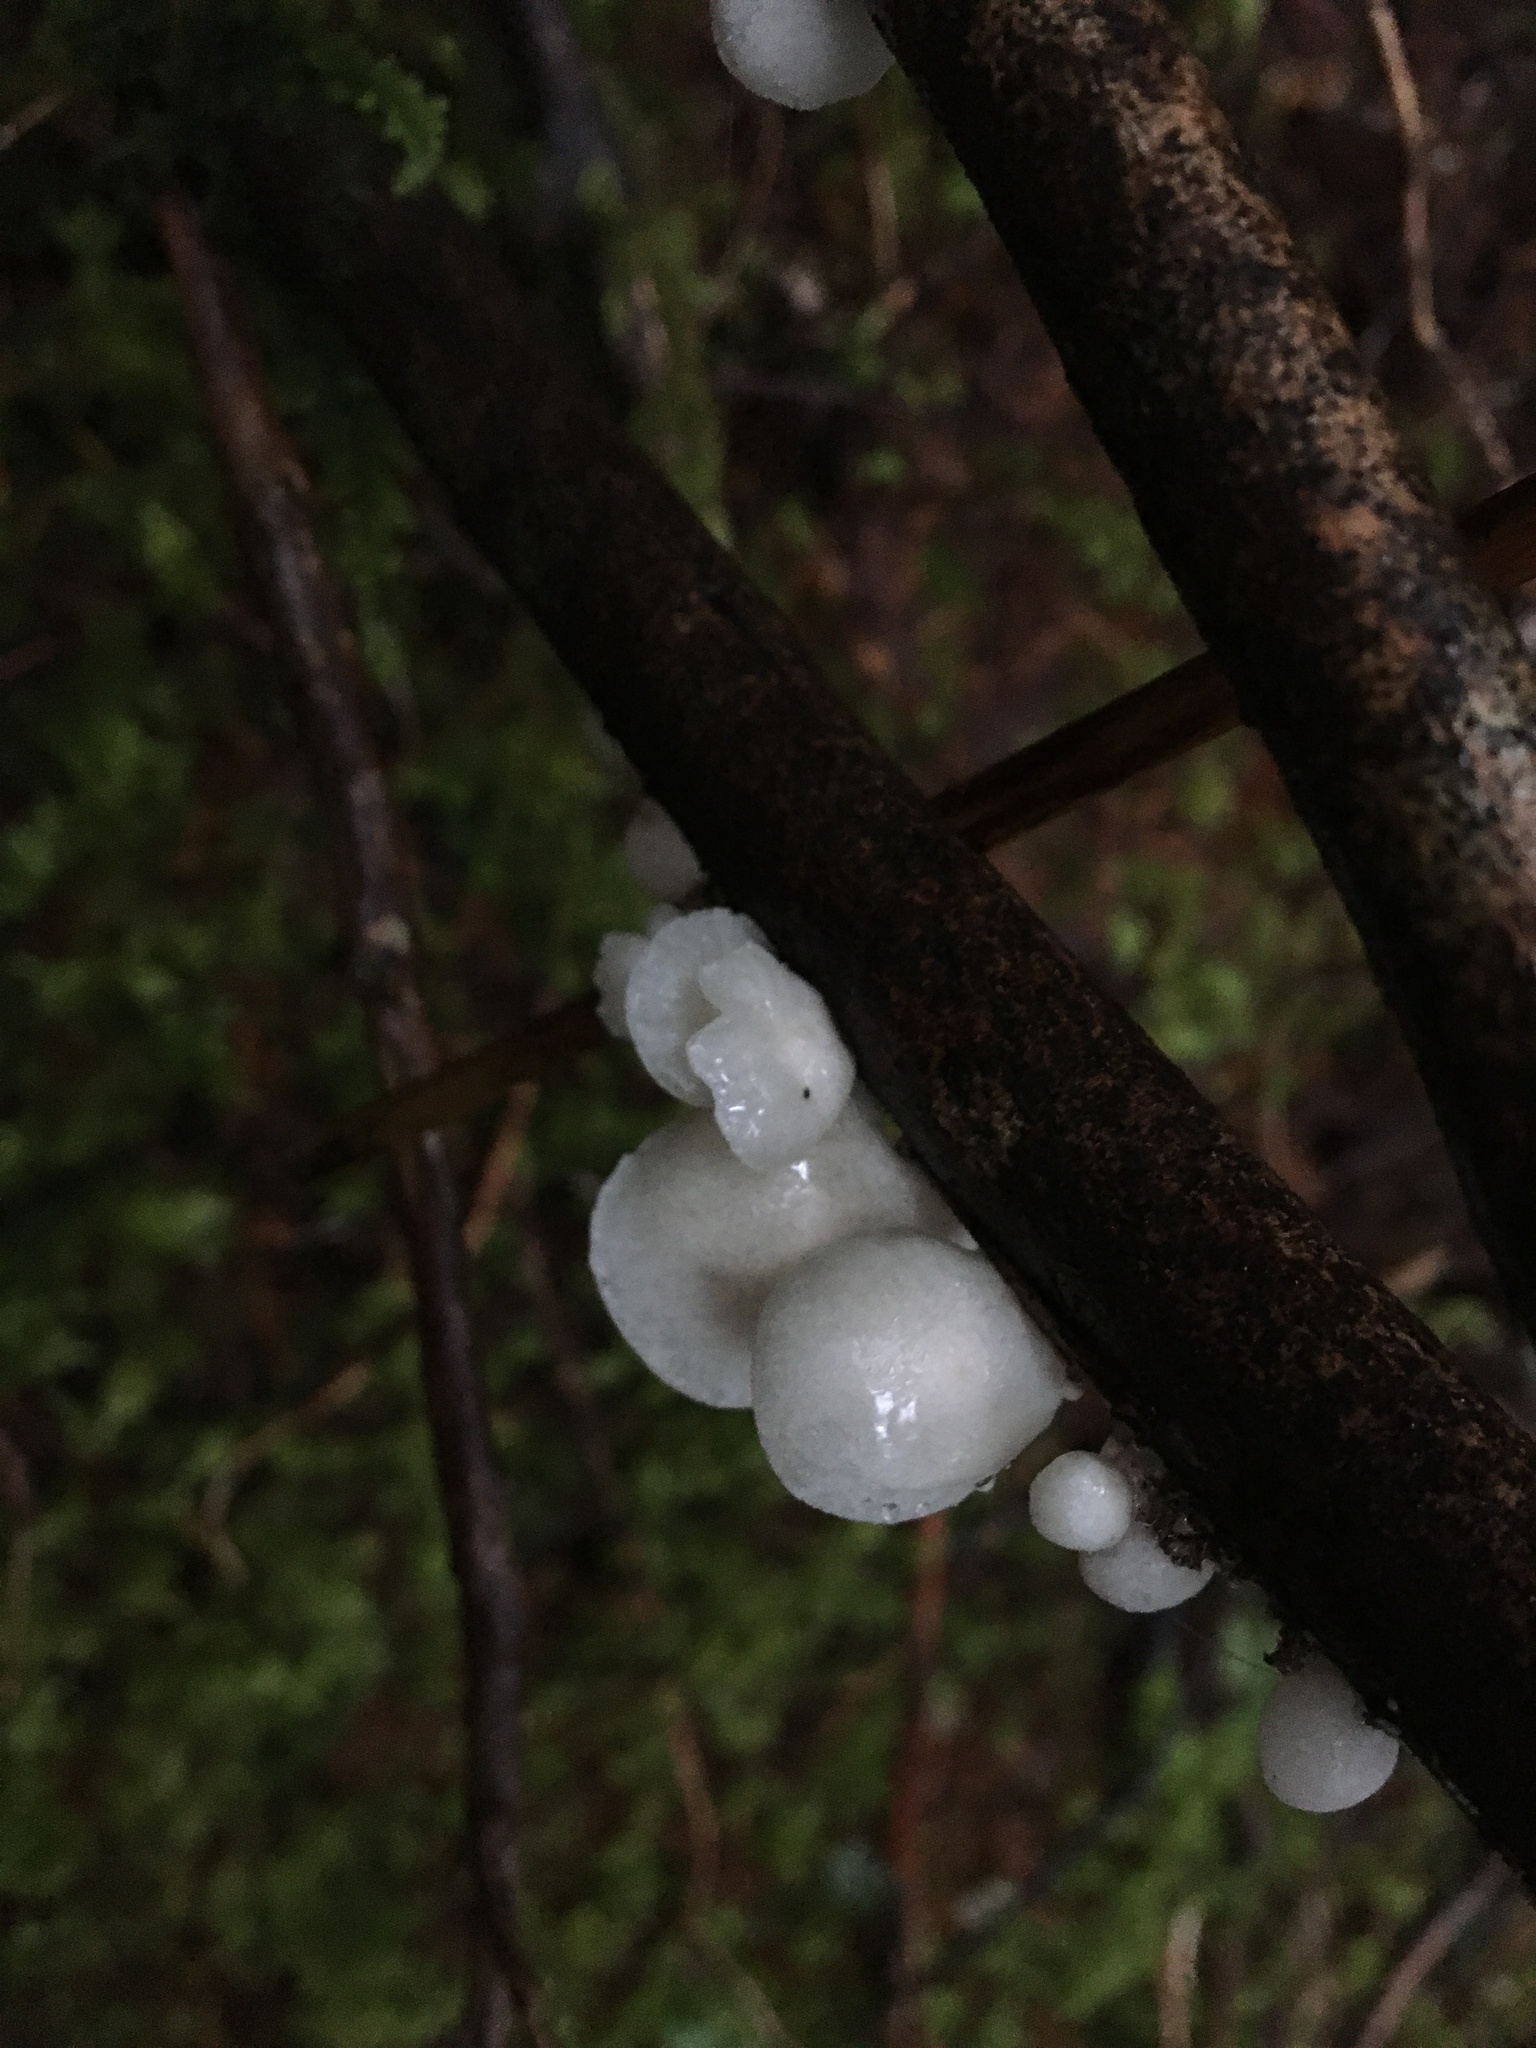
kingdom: Fungi
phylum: Basidiomycota
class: Agaricomycetes
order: Agaricales
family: Omphalotaceae
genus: Marasmiellus
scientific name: Marasmiellus candidus
